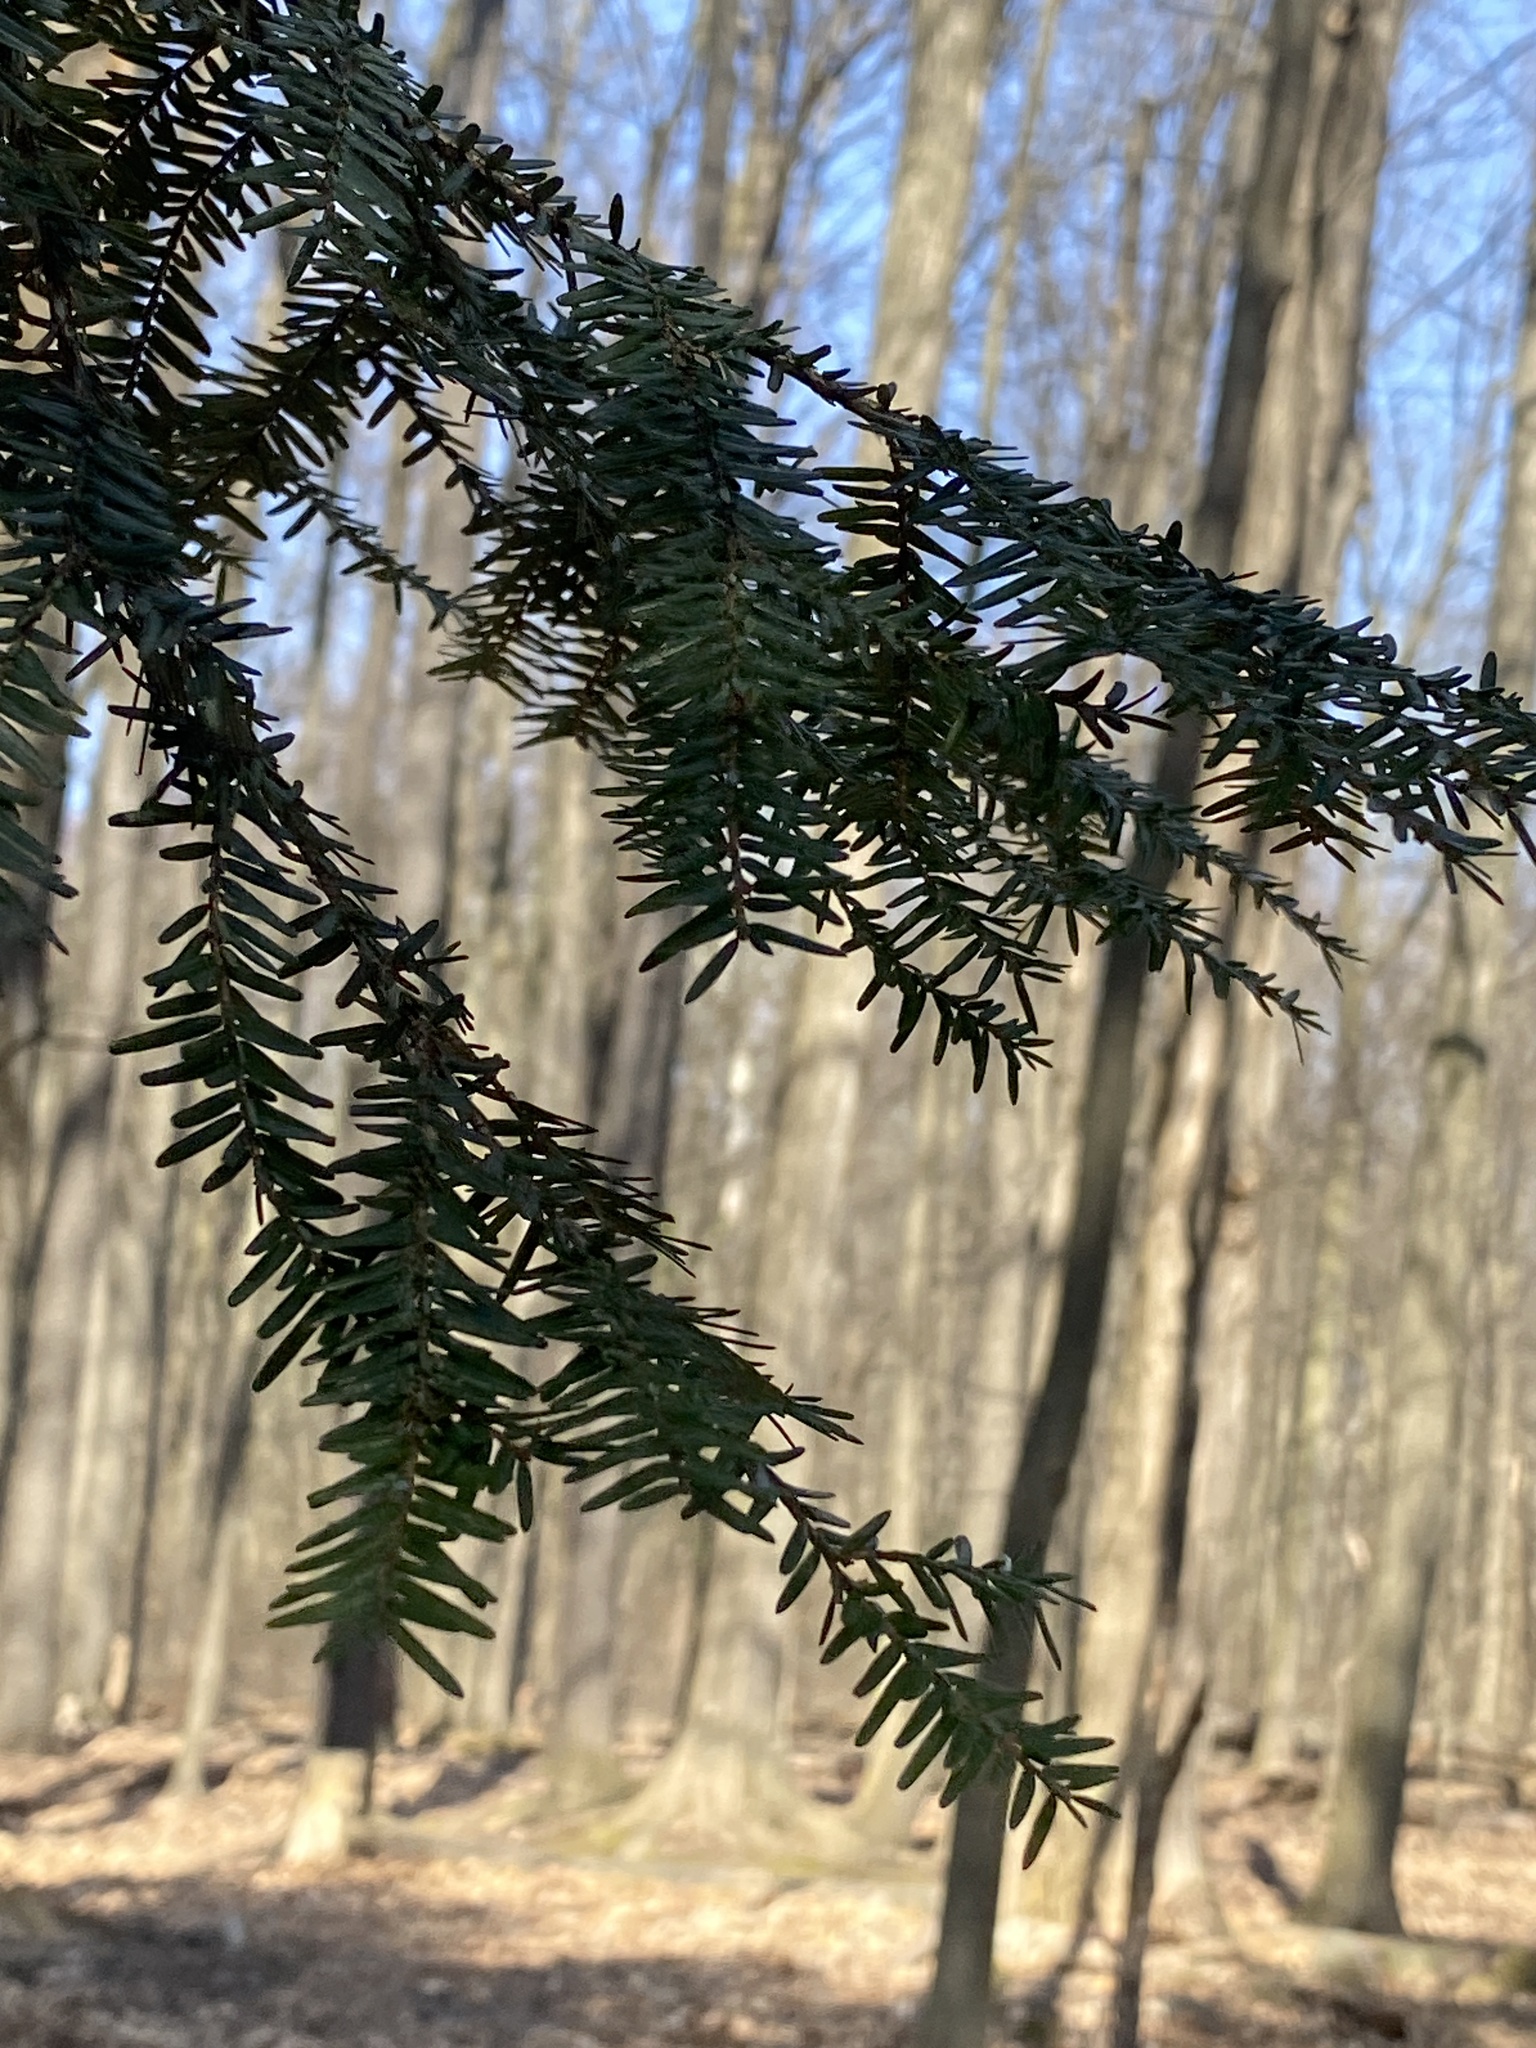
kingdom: Plantae
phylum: Tracheophyta
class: Pinopsida
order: Pinales
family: Pinaceae
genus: Tsuga
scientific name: Tsuga canadensis
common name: Eastern hemlock
